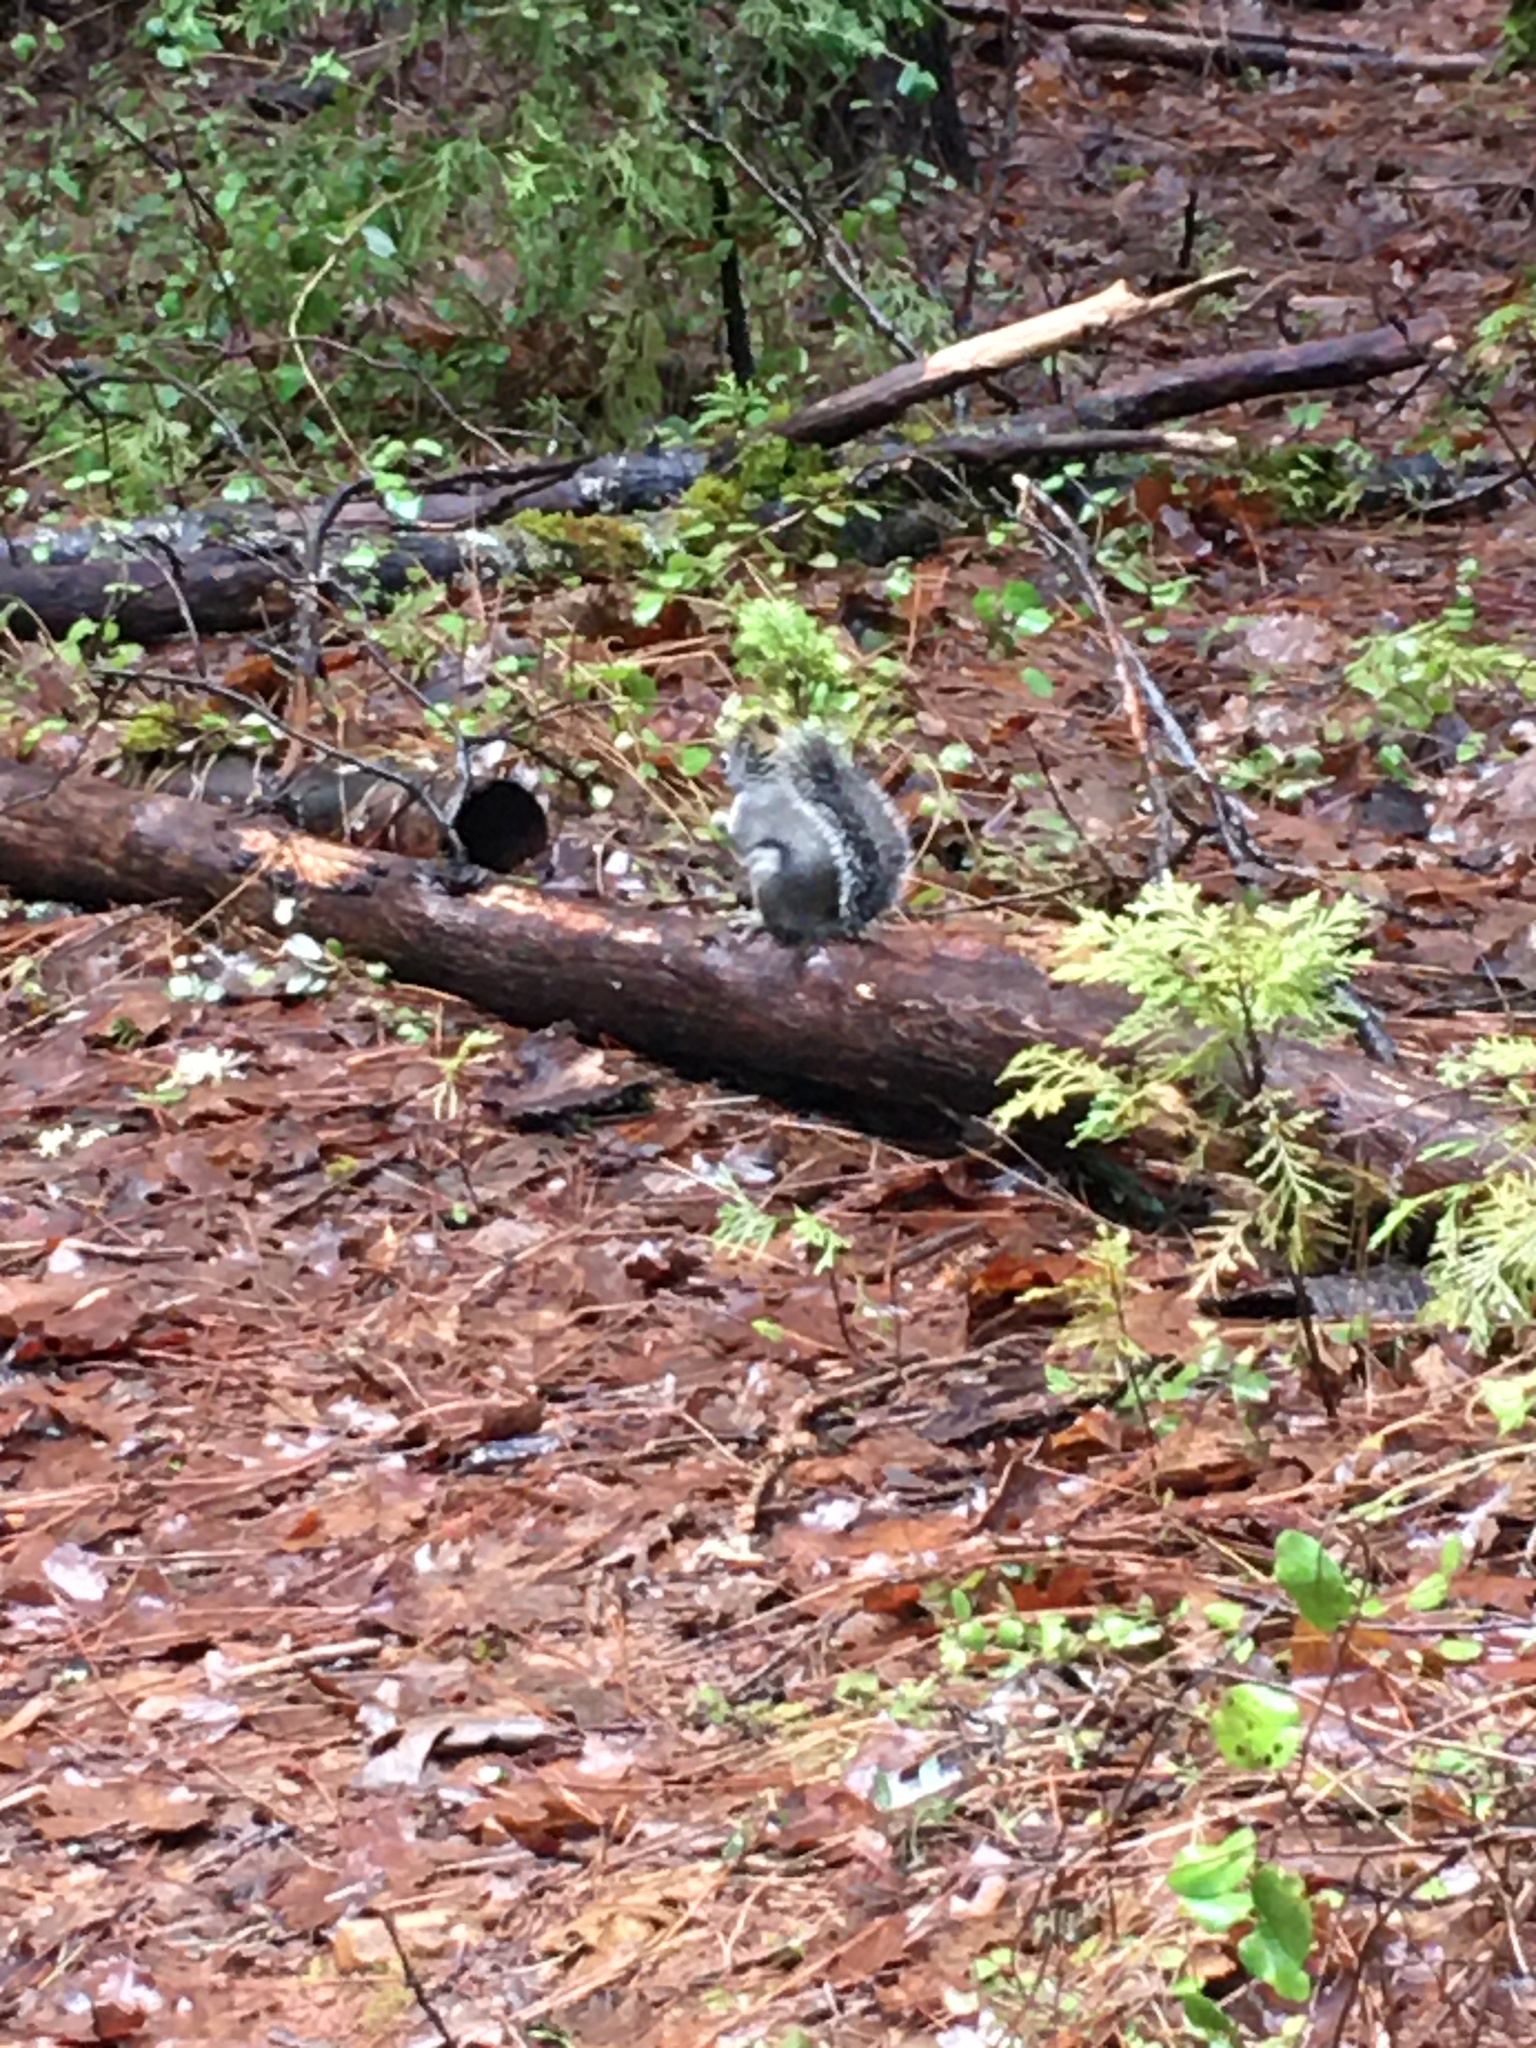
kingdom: Animalia
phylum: Chordata
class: Mammalia
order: Rodentia
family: Sciuridae
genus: Tamiasciurus
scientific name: Tamiasciurus douglasii
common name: Douglas's squirrel
